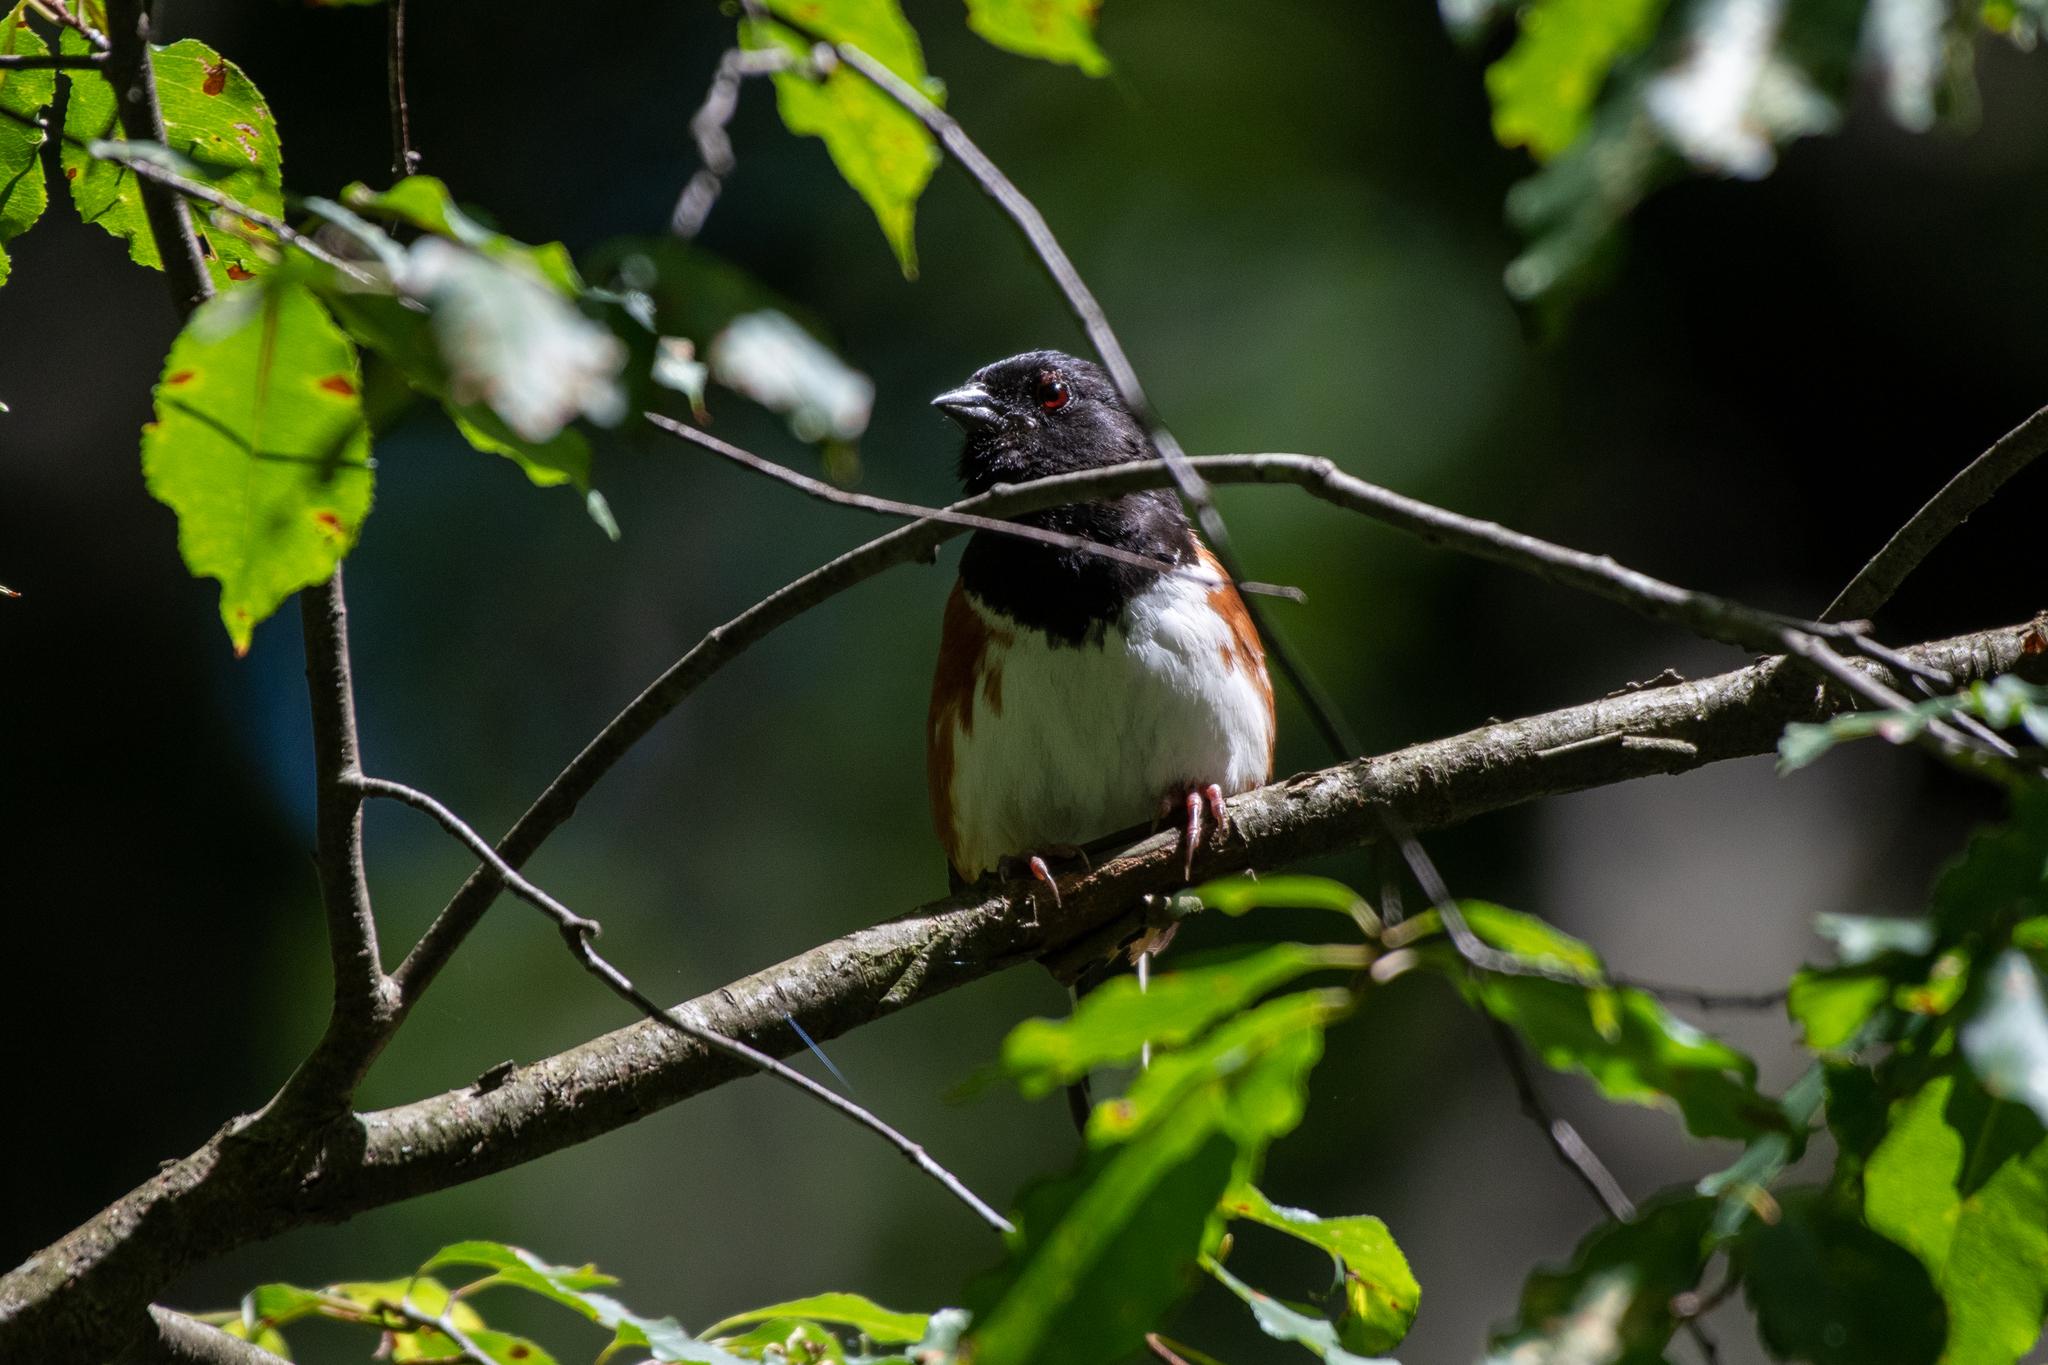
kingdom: Animalia
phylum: Chordata
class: Aves
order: Passeriformes
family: Passerellidae
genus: Pipilo
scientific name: Pipilo erythrophthalmus
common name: Eastern towhee
